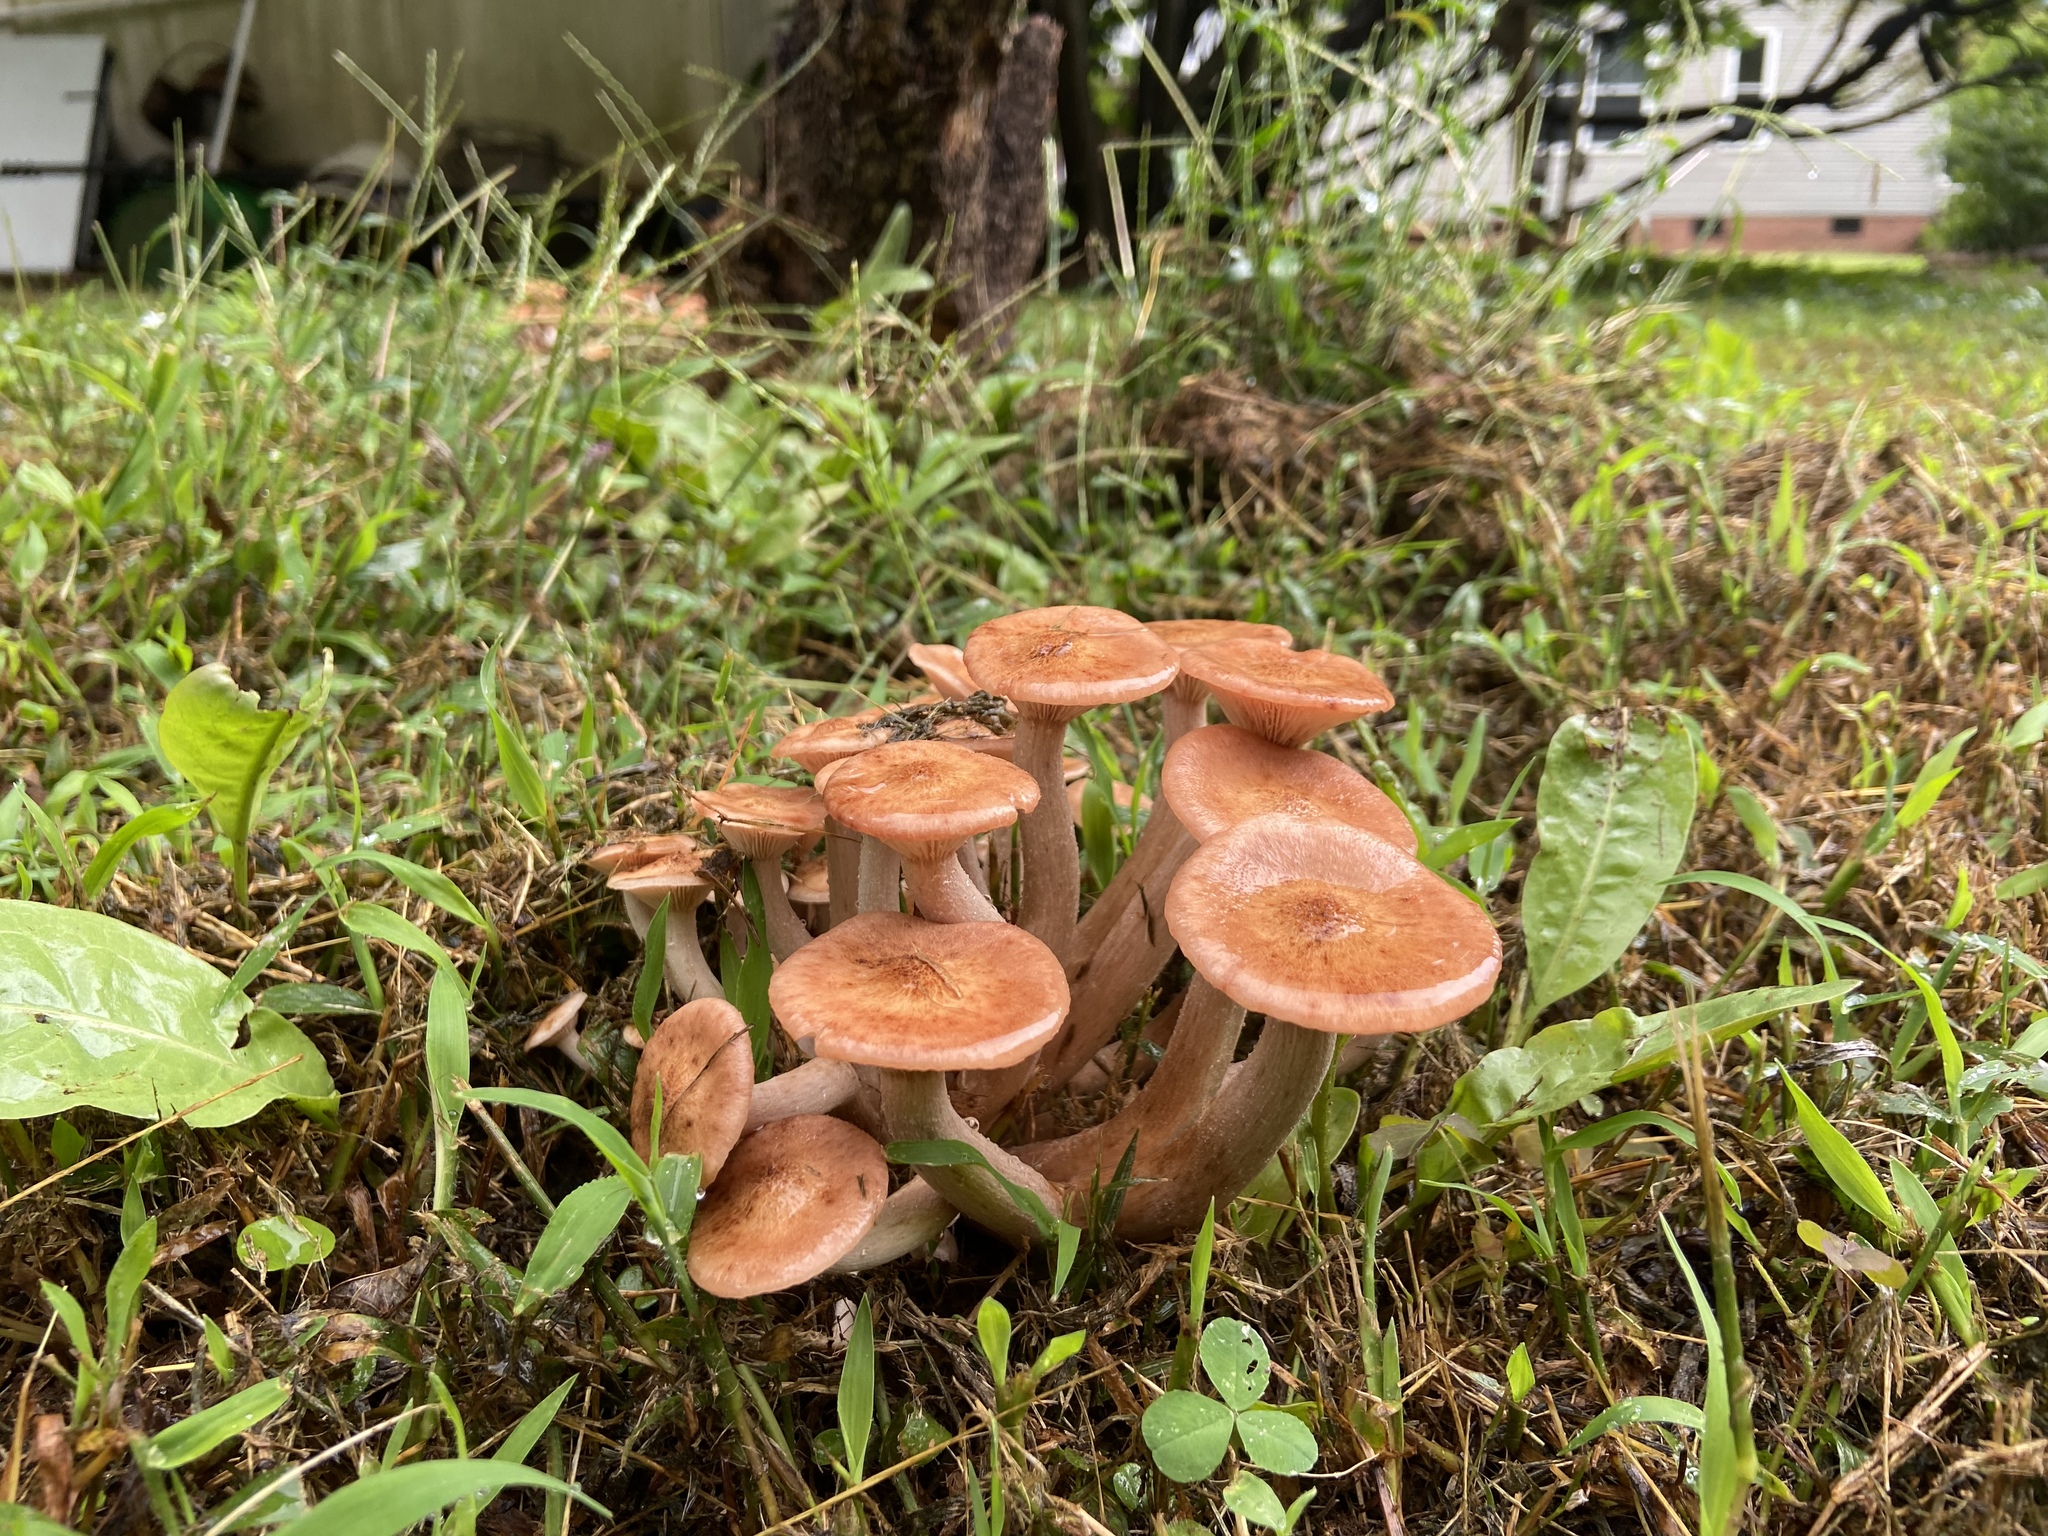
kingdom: Fungi
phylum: Basidiomycota
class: Agaricomycetes
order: Agaricales
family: Physalacriaceae
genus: Desarmillaria
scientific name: Desarmillaria caespitosa
